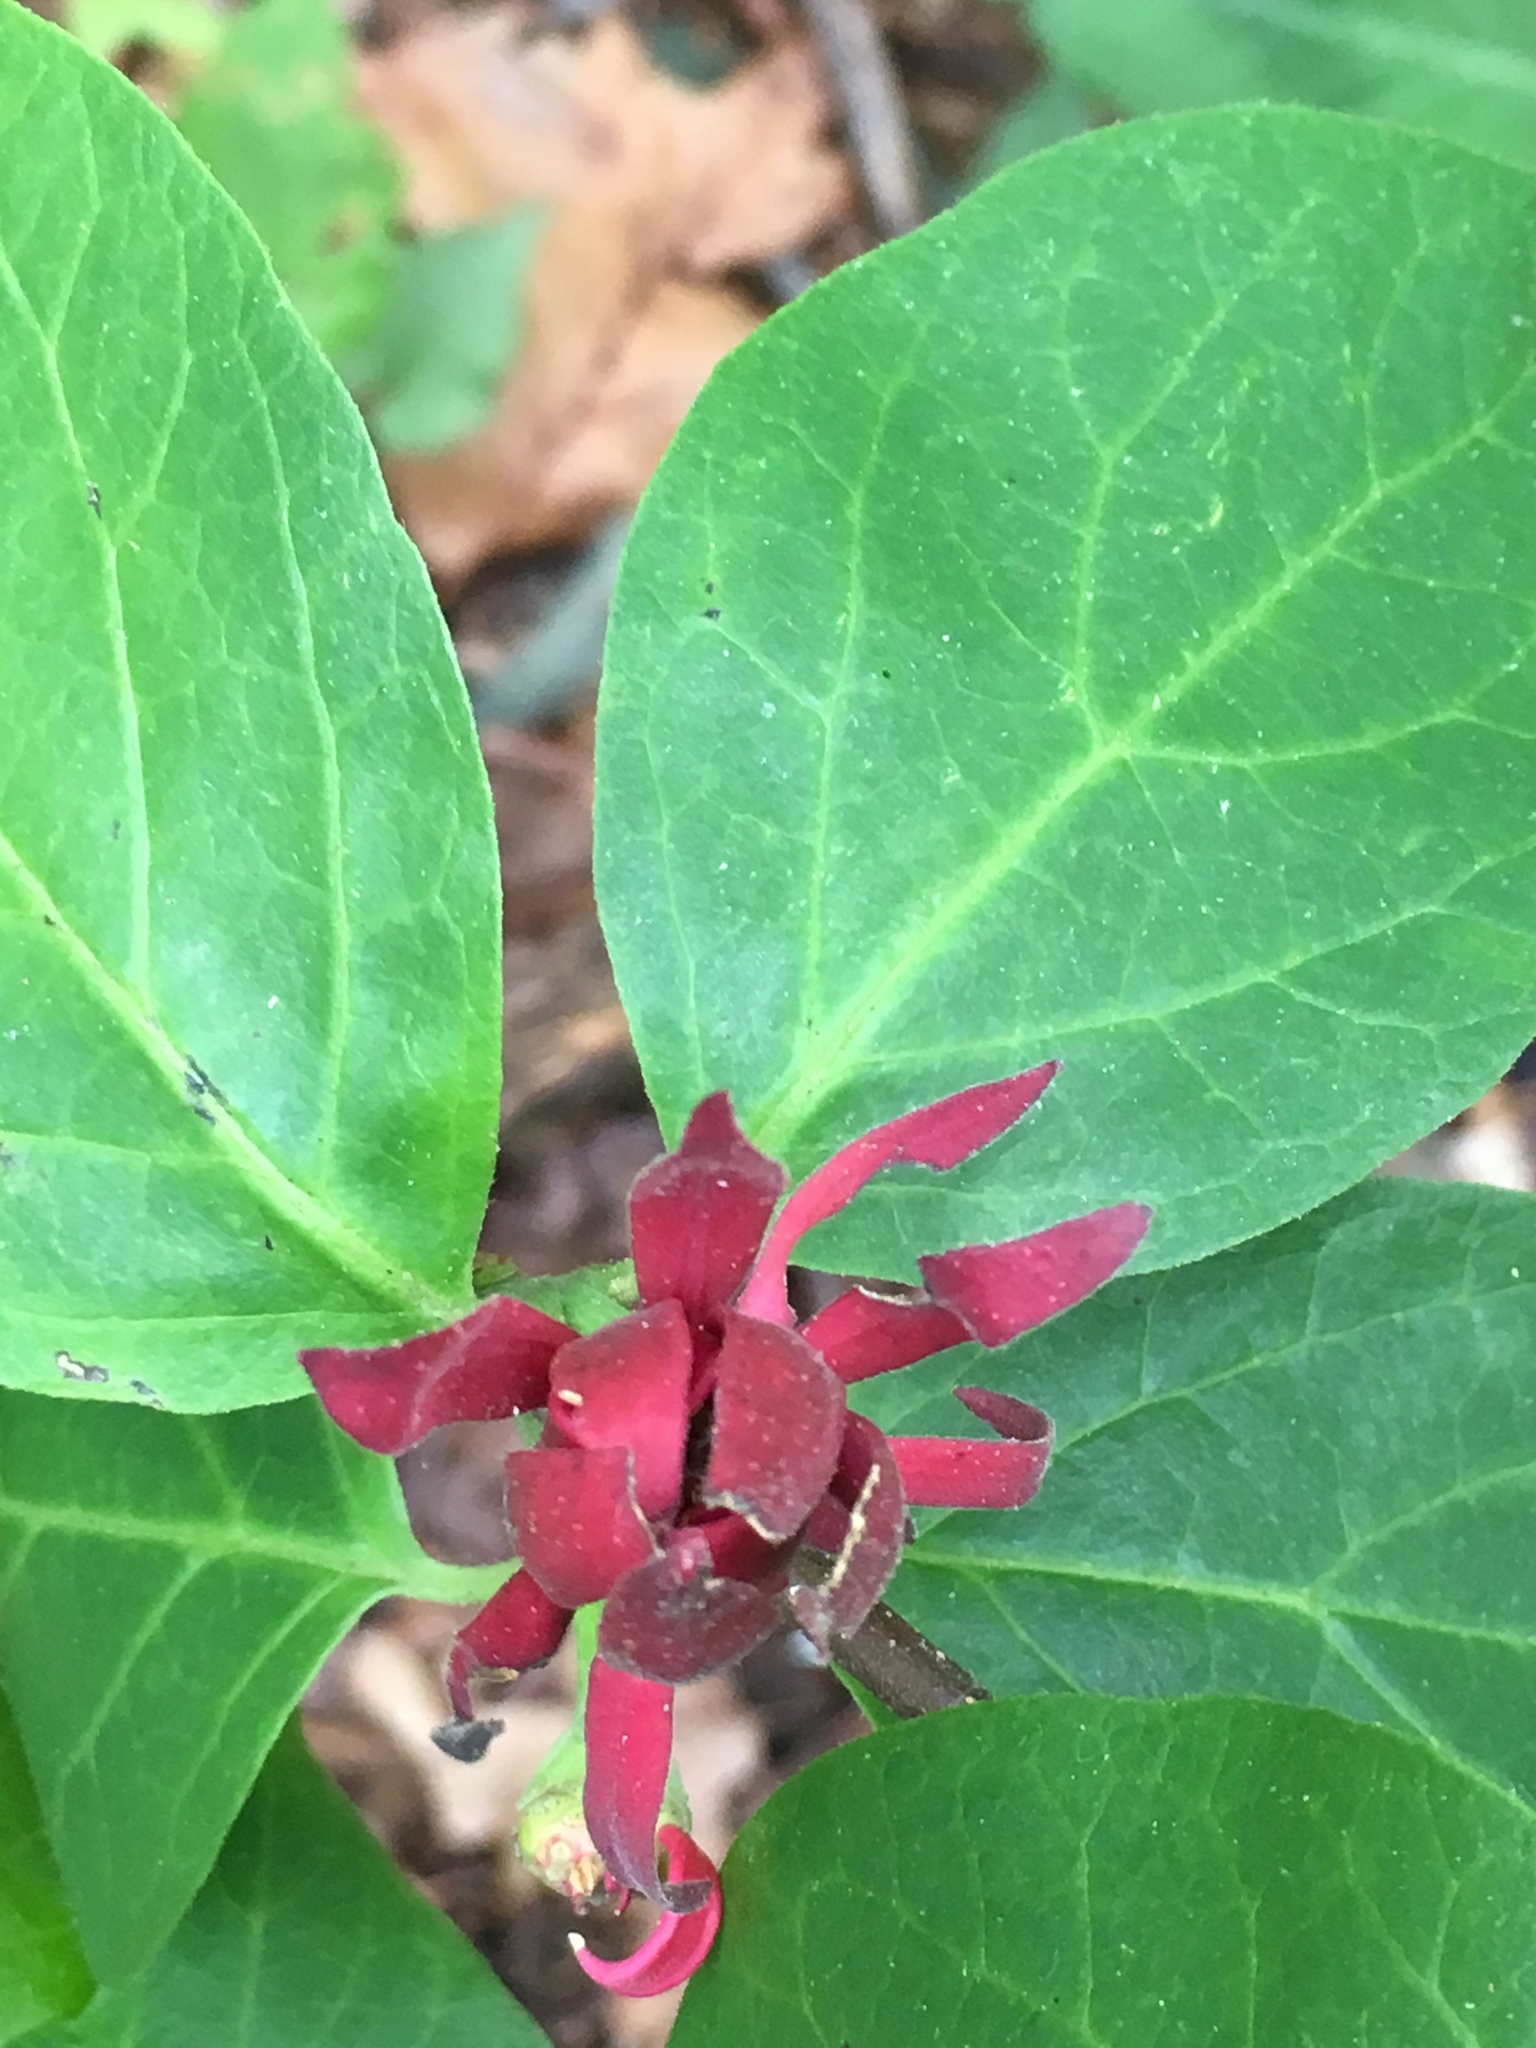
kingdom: Plantae
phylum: Tracheophyta
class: Magnoliopsida
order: Laurales
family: Calycanthaceae
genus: Calycanthus
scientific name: Calycanthus floridus
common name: Carolina-allspice
